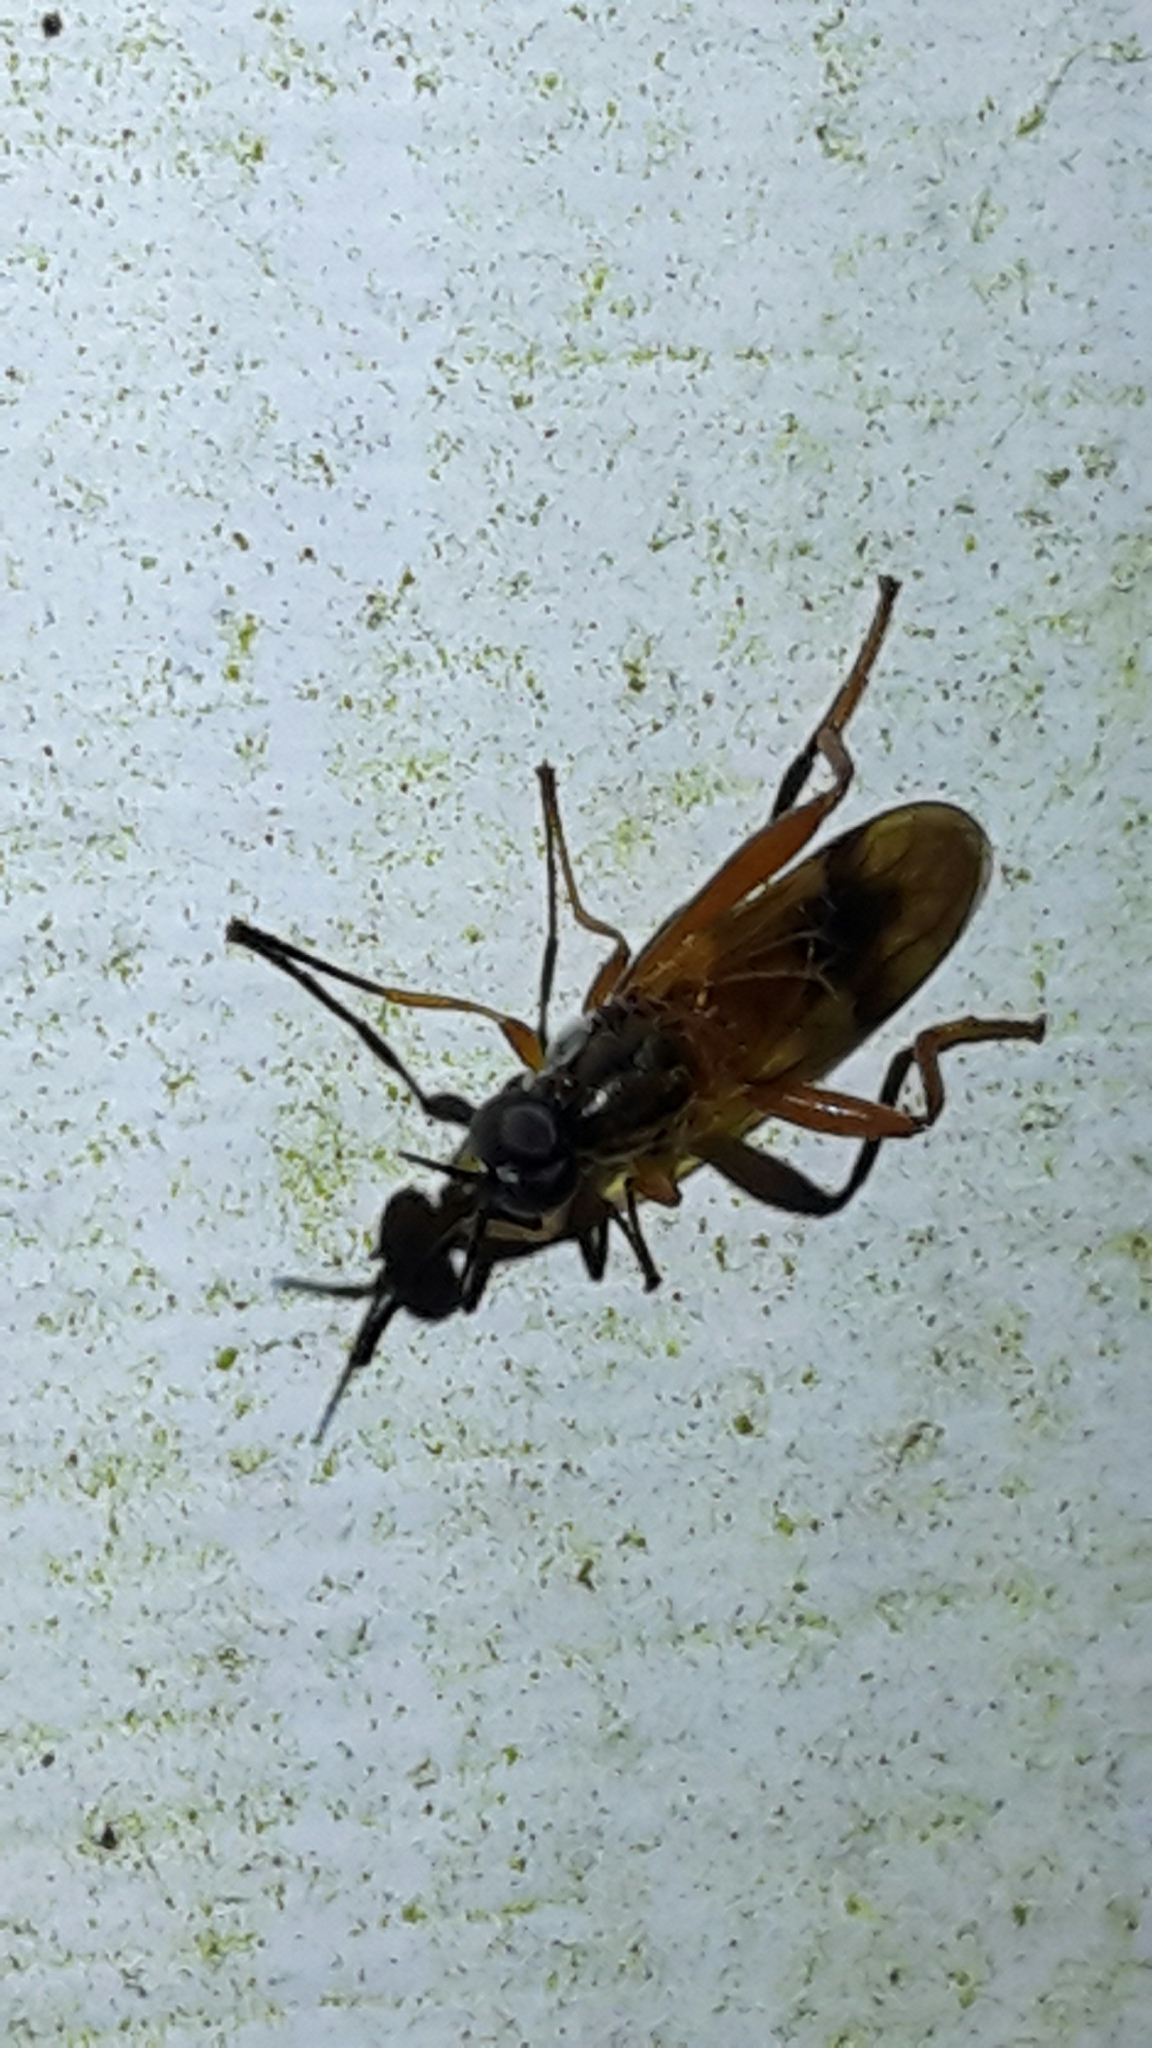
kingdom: Animalia
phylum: Arthropoda
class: Insecta
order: Diptera
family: Stratiomyidae
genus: Benhamyia
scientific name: Benhamyia apicalis
